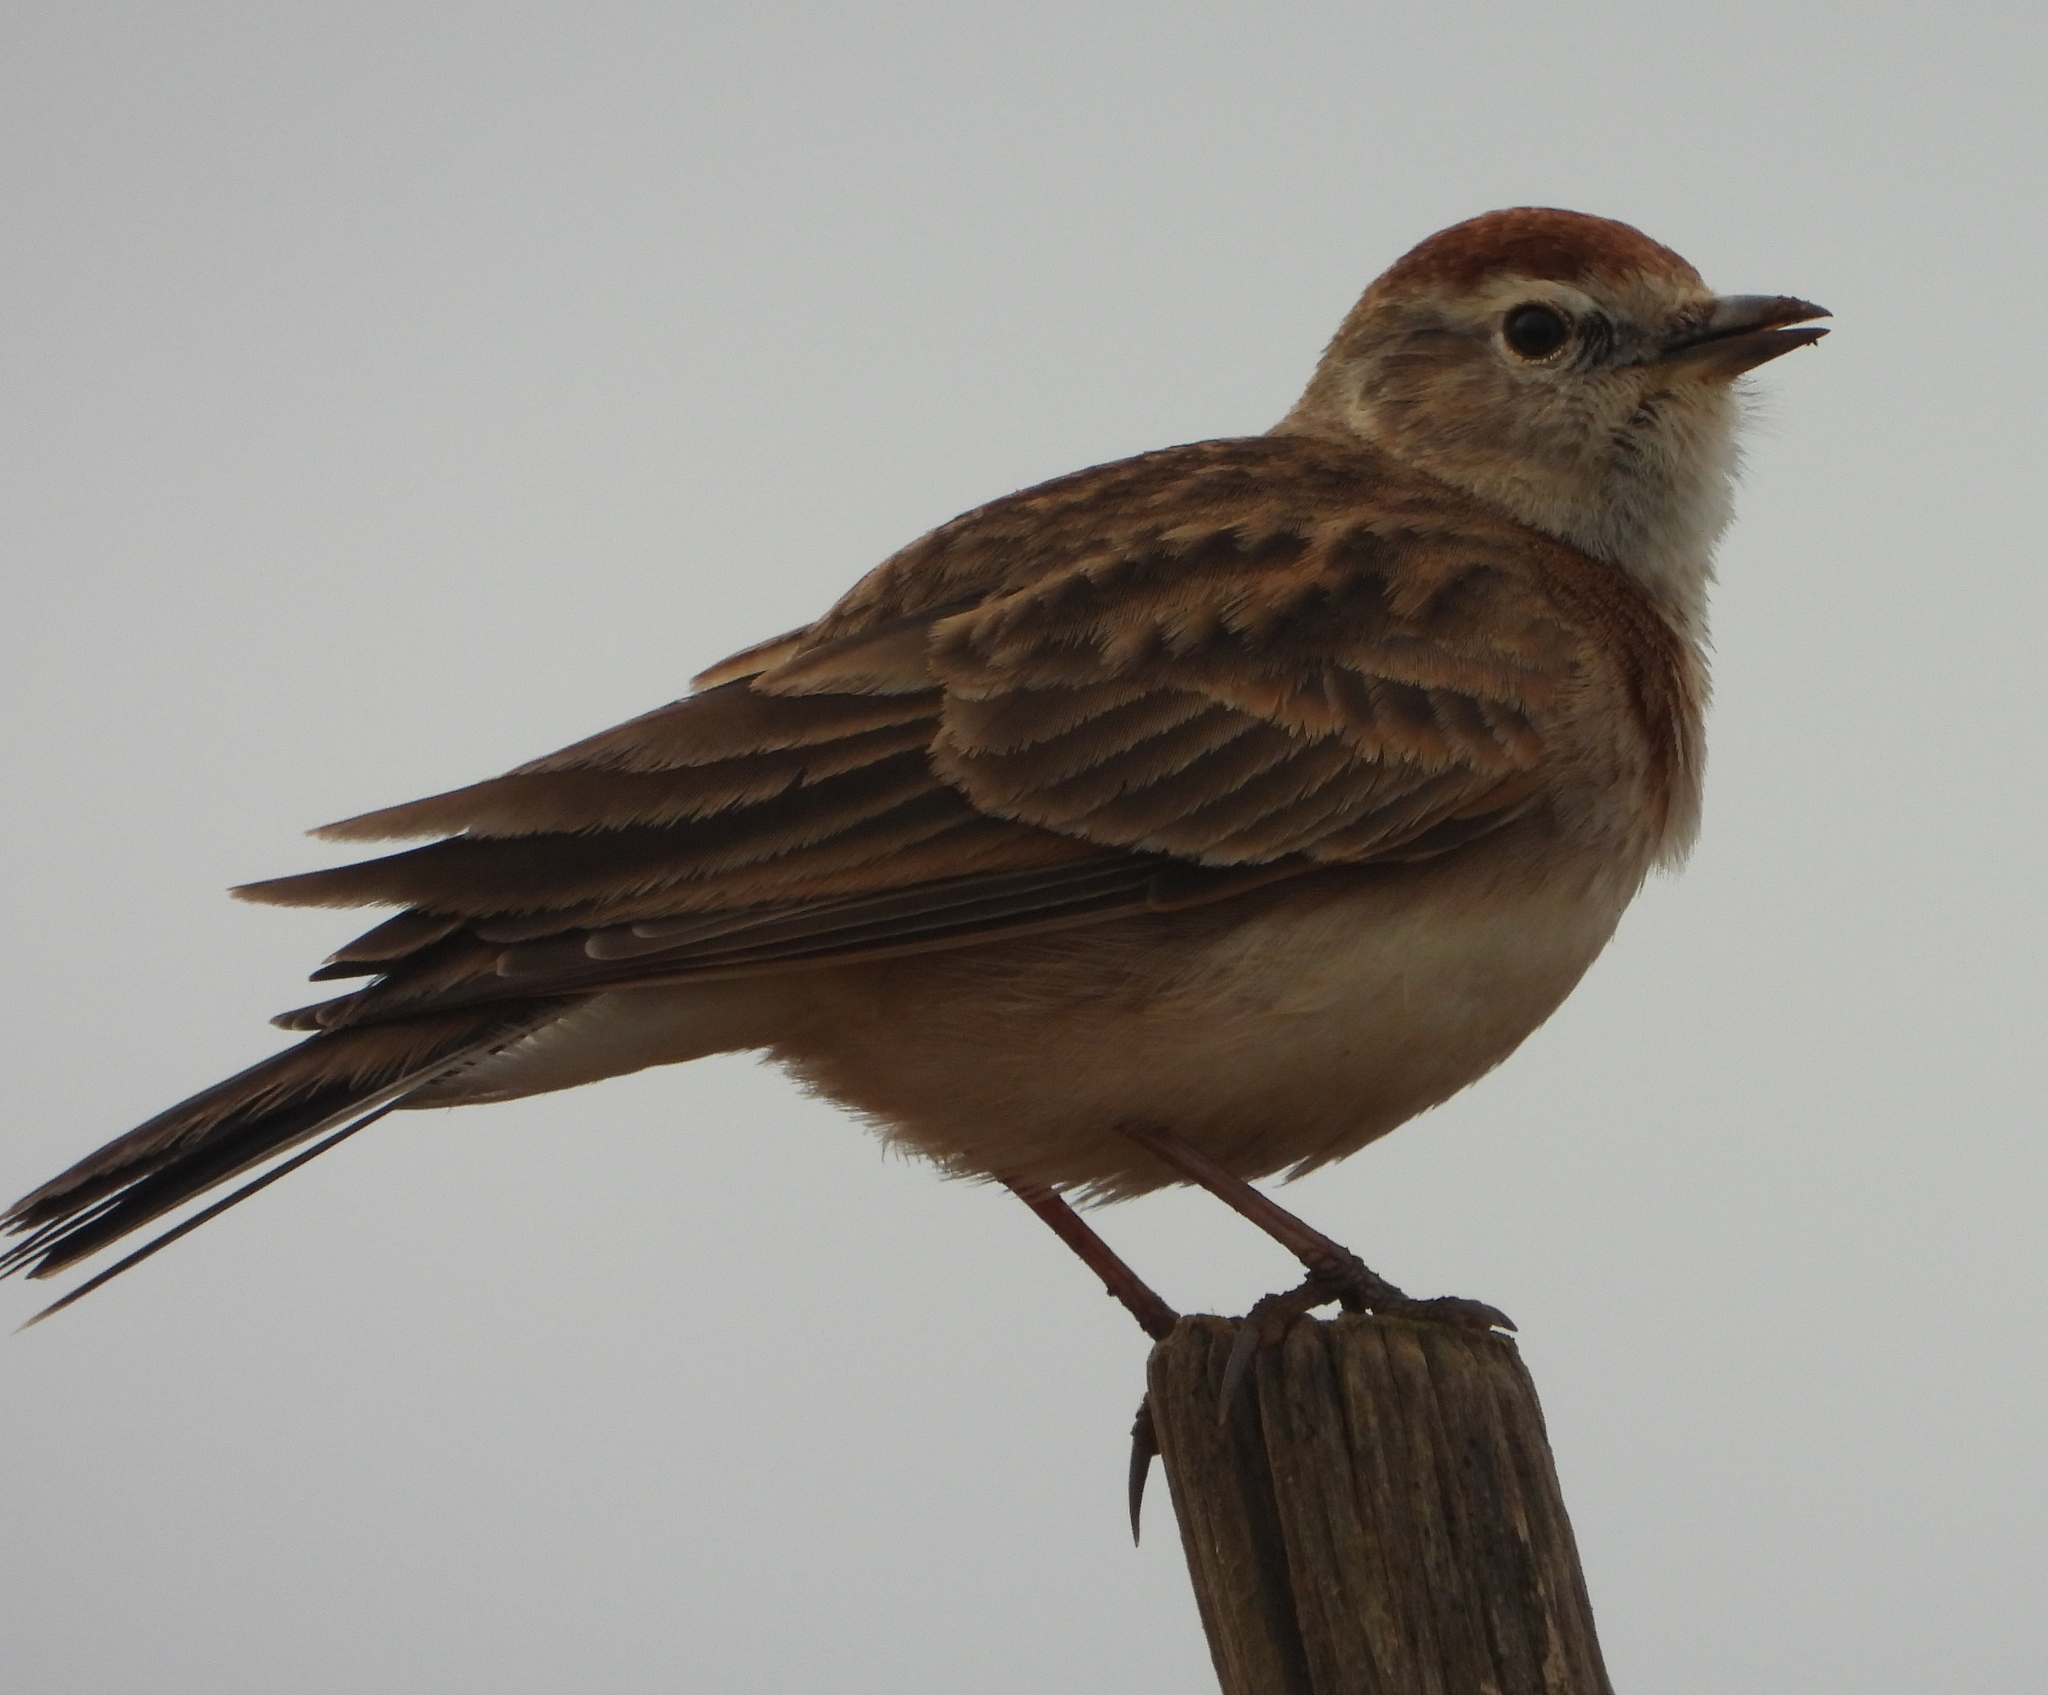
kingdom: Animalia
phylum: Chordata
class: Aves
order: Passeriformes
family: Alaudidae
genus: Calandrella
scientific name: Calandrella cinerea
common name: Red-capped lark
